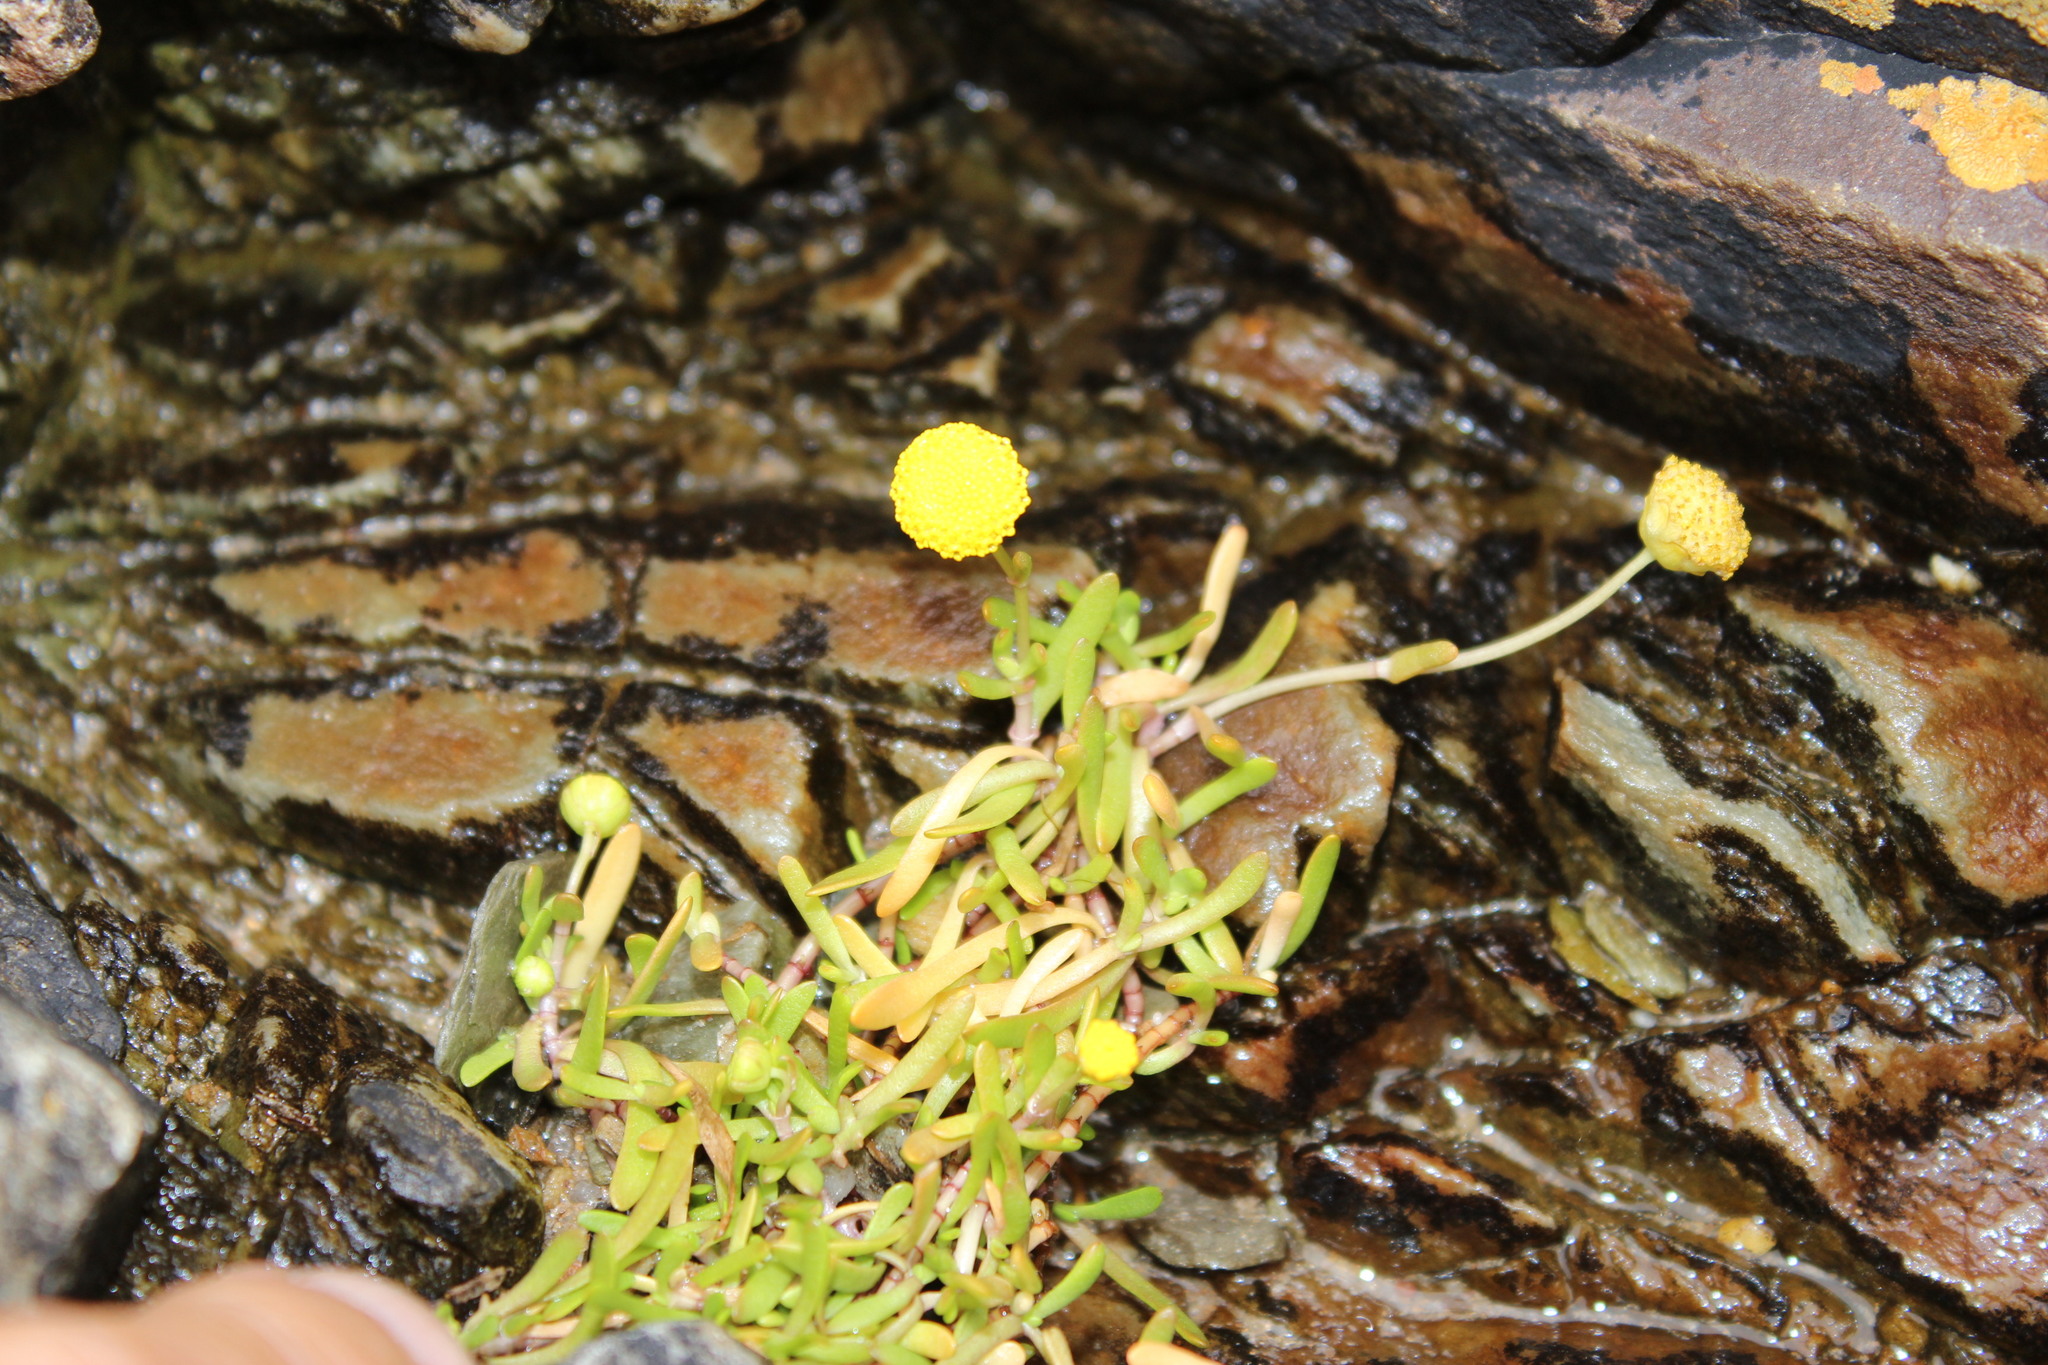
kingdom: Plantae
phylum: Tracheophyta
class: Magnoliopsida
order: Asterales
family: Asteraceae
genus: Cotula
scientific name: Cotula coronopifolia
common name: Buttonweed
